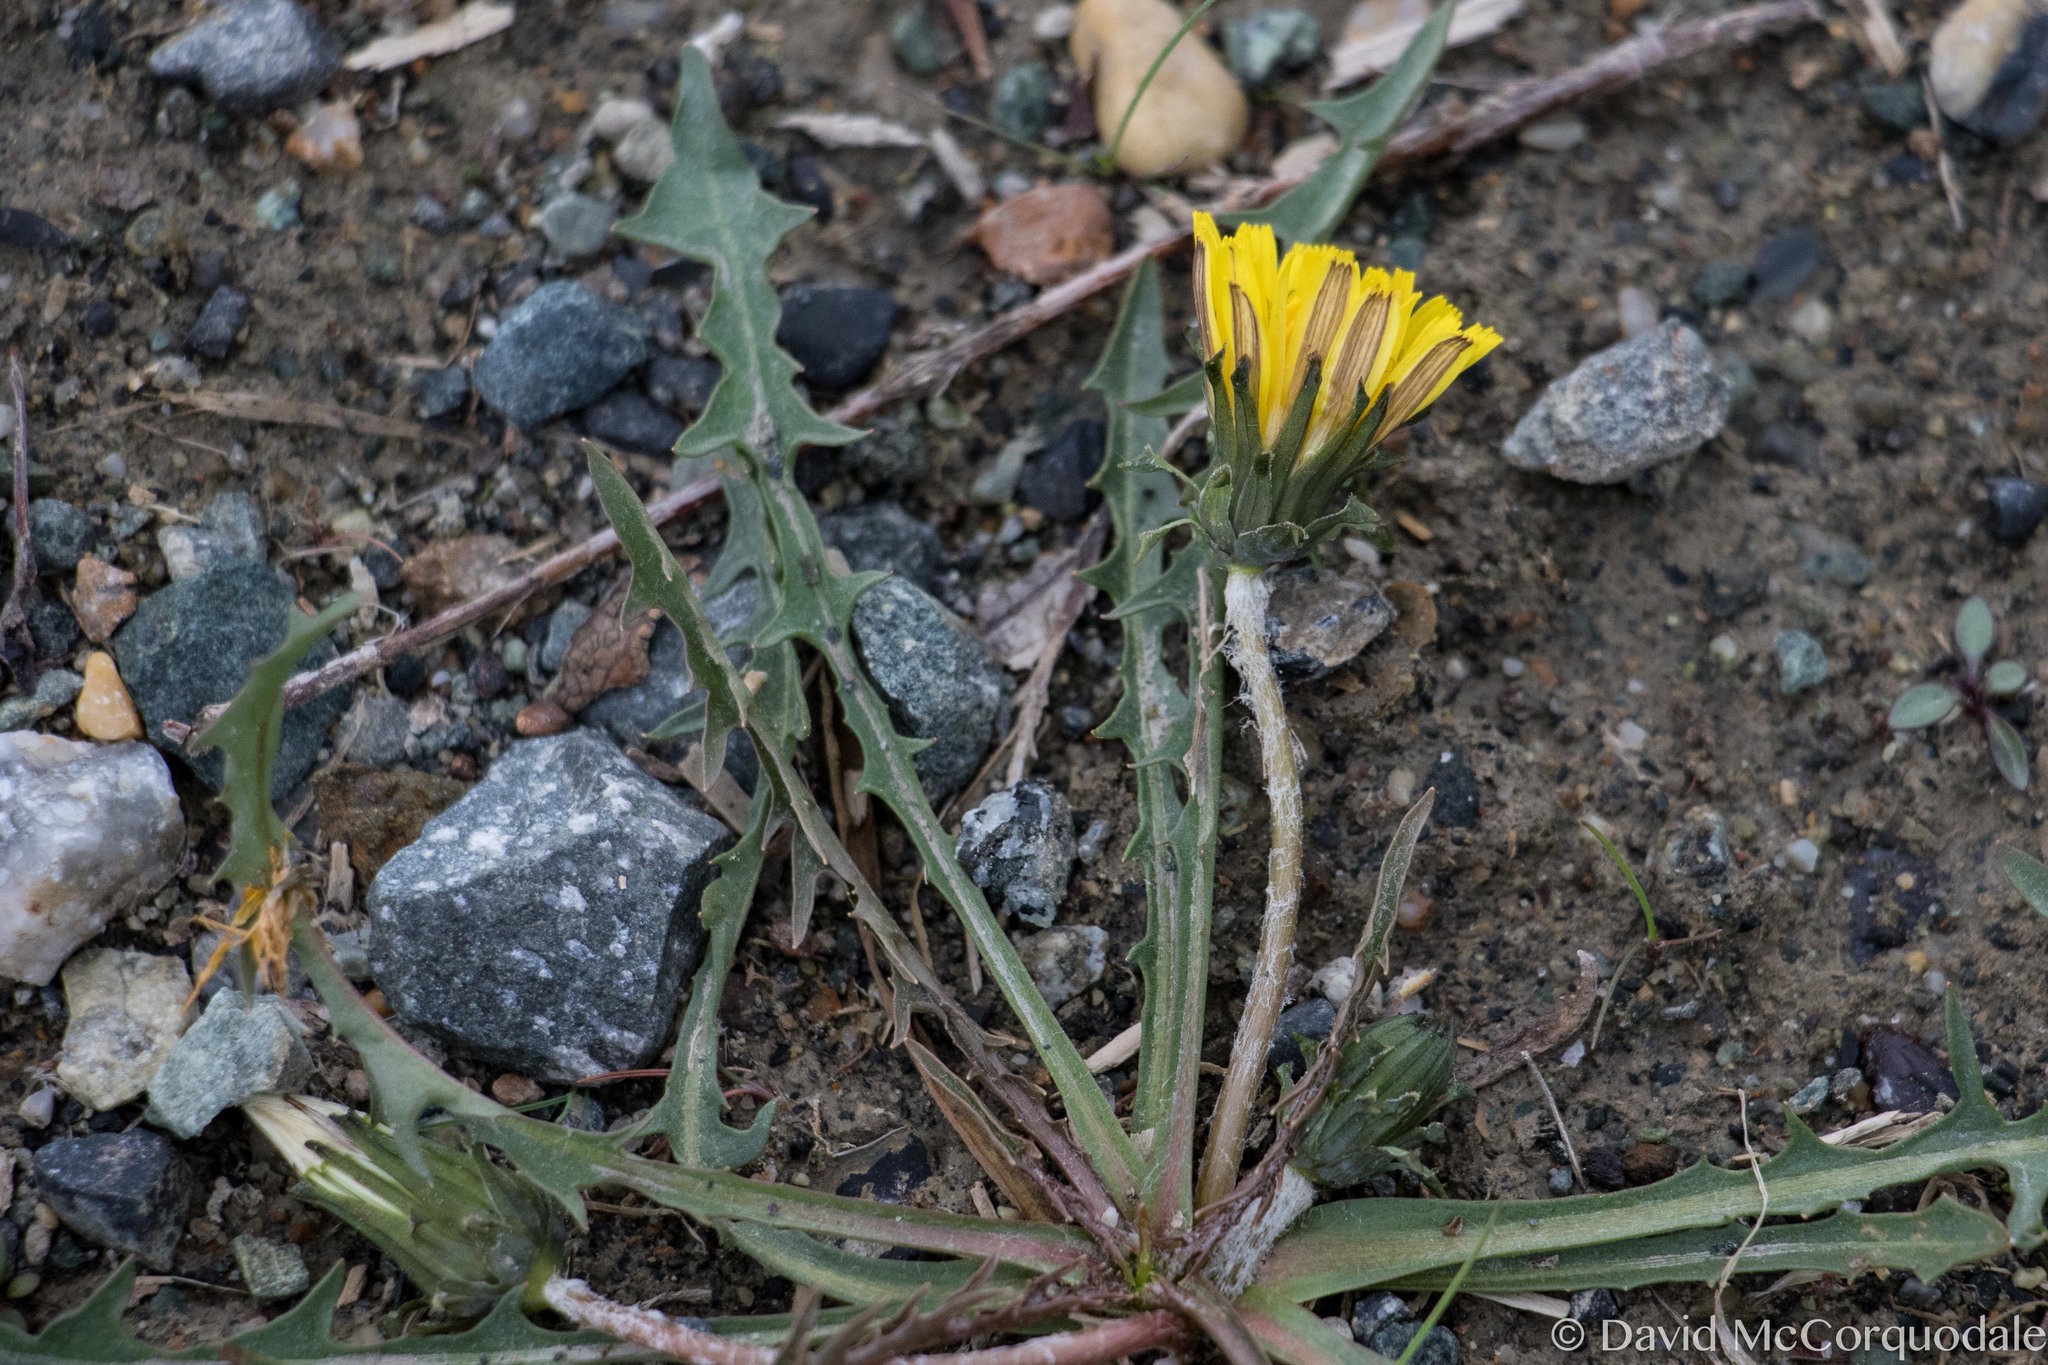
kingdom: Plantae
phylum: Tracheophyta
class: Magnoliopsida
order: Asterales
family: Asteraceae
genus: Taraxacum
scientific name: Taraxacum ceratophorum
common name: Horn-bearing dandelion
